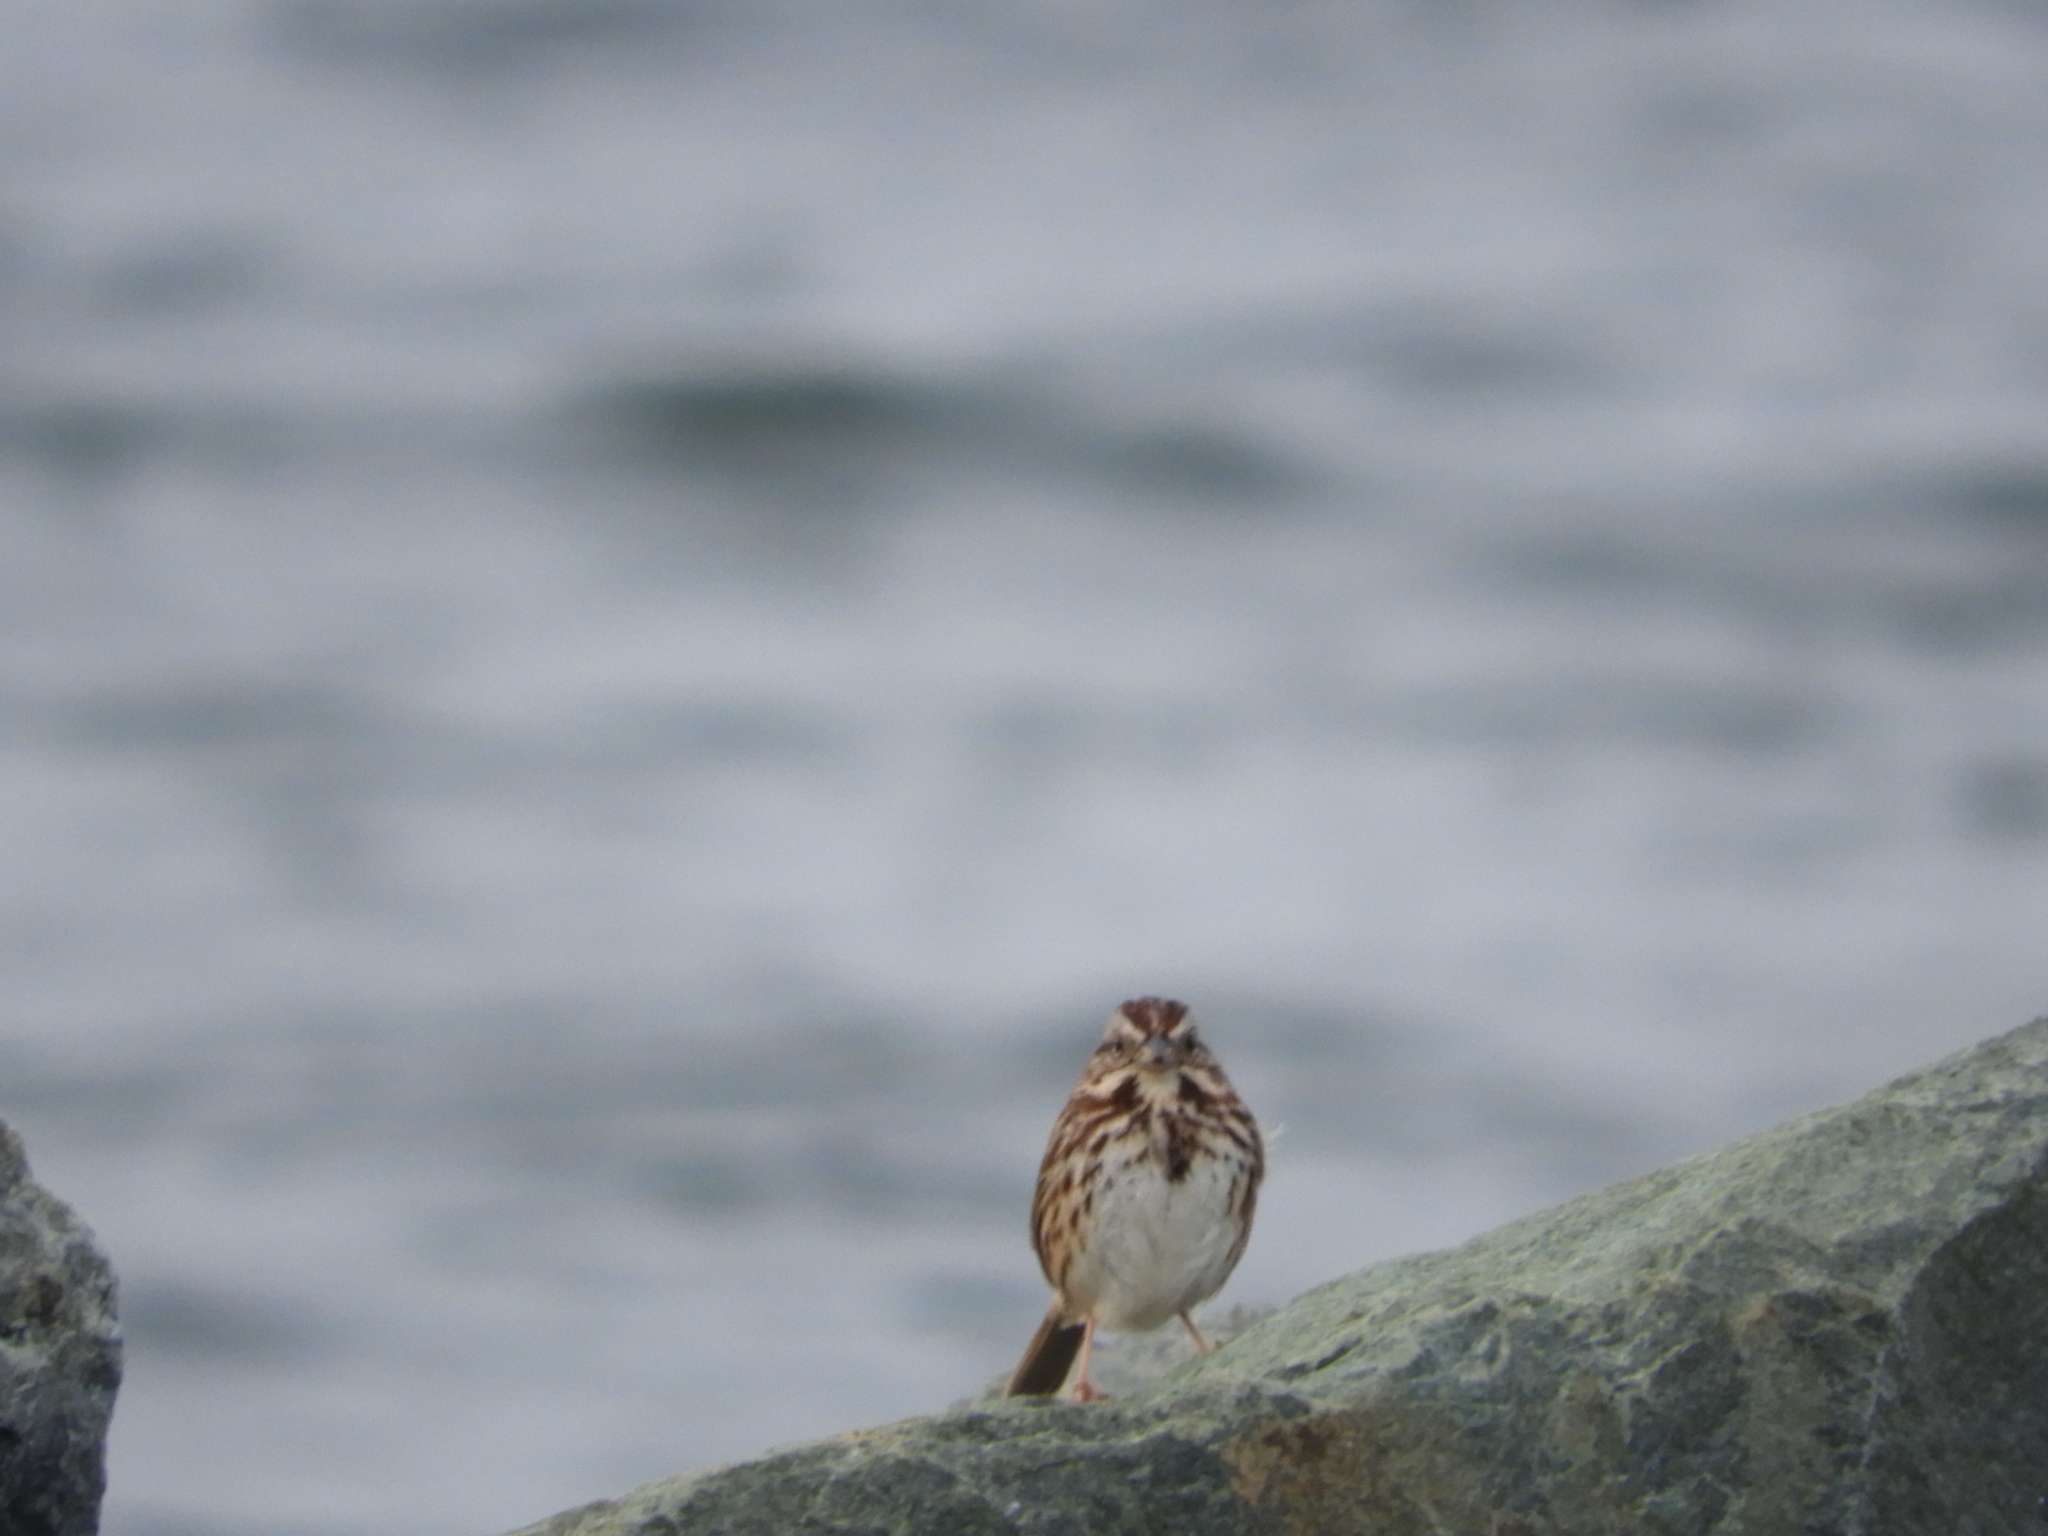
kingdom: Animalia
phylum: Chordata
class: Aves
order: Passeriformes
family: Passerellidae
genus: Melospiza
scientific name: Melospiza melodia
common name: Song sparrow
